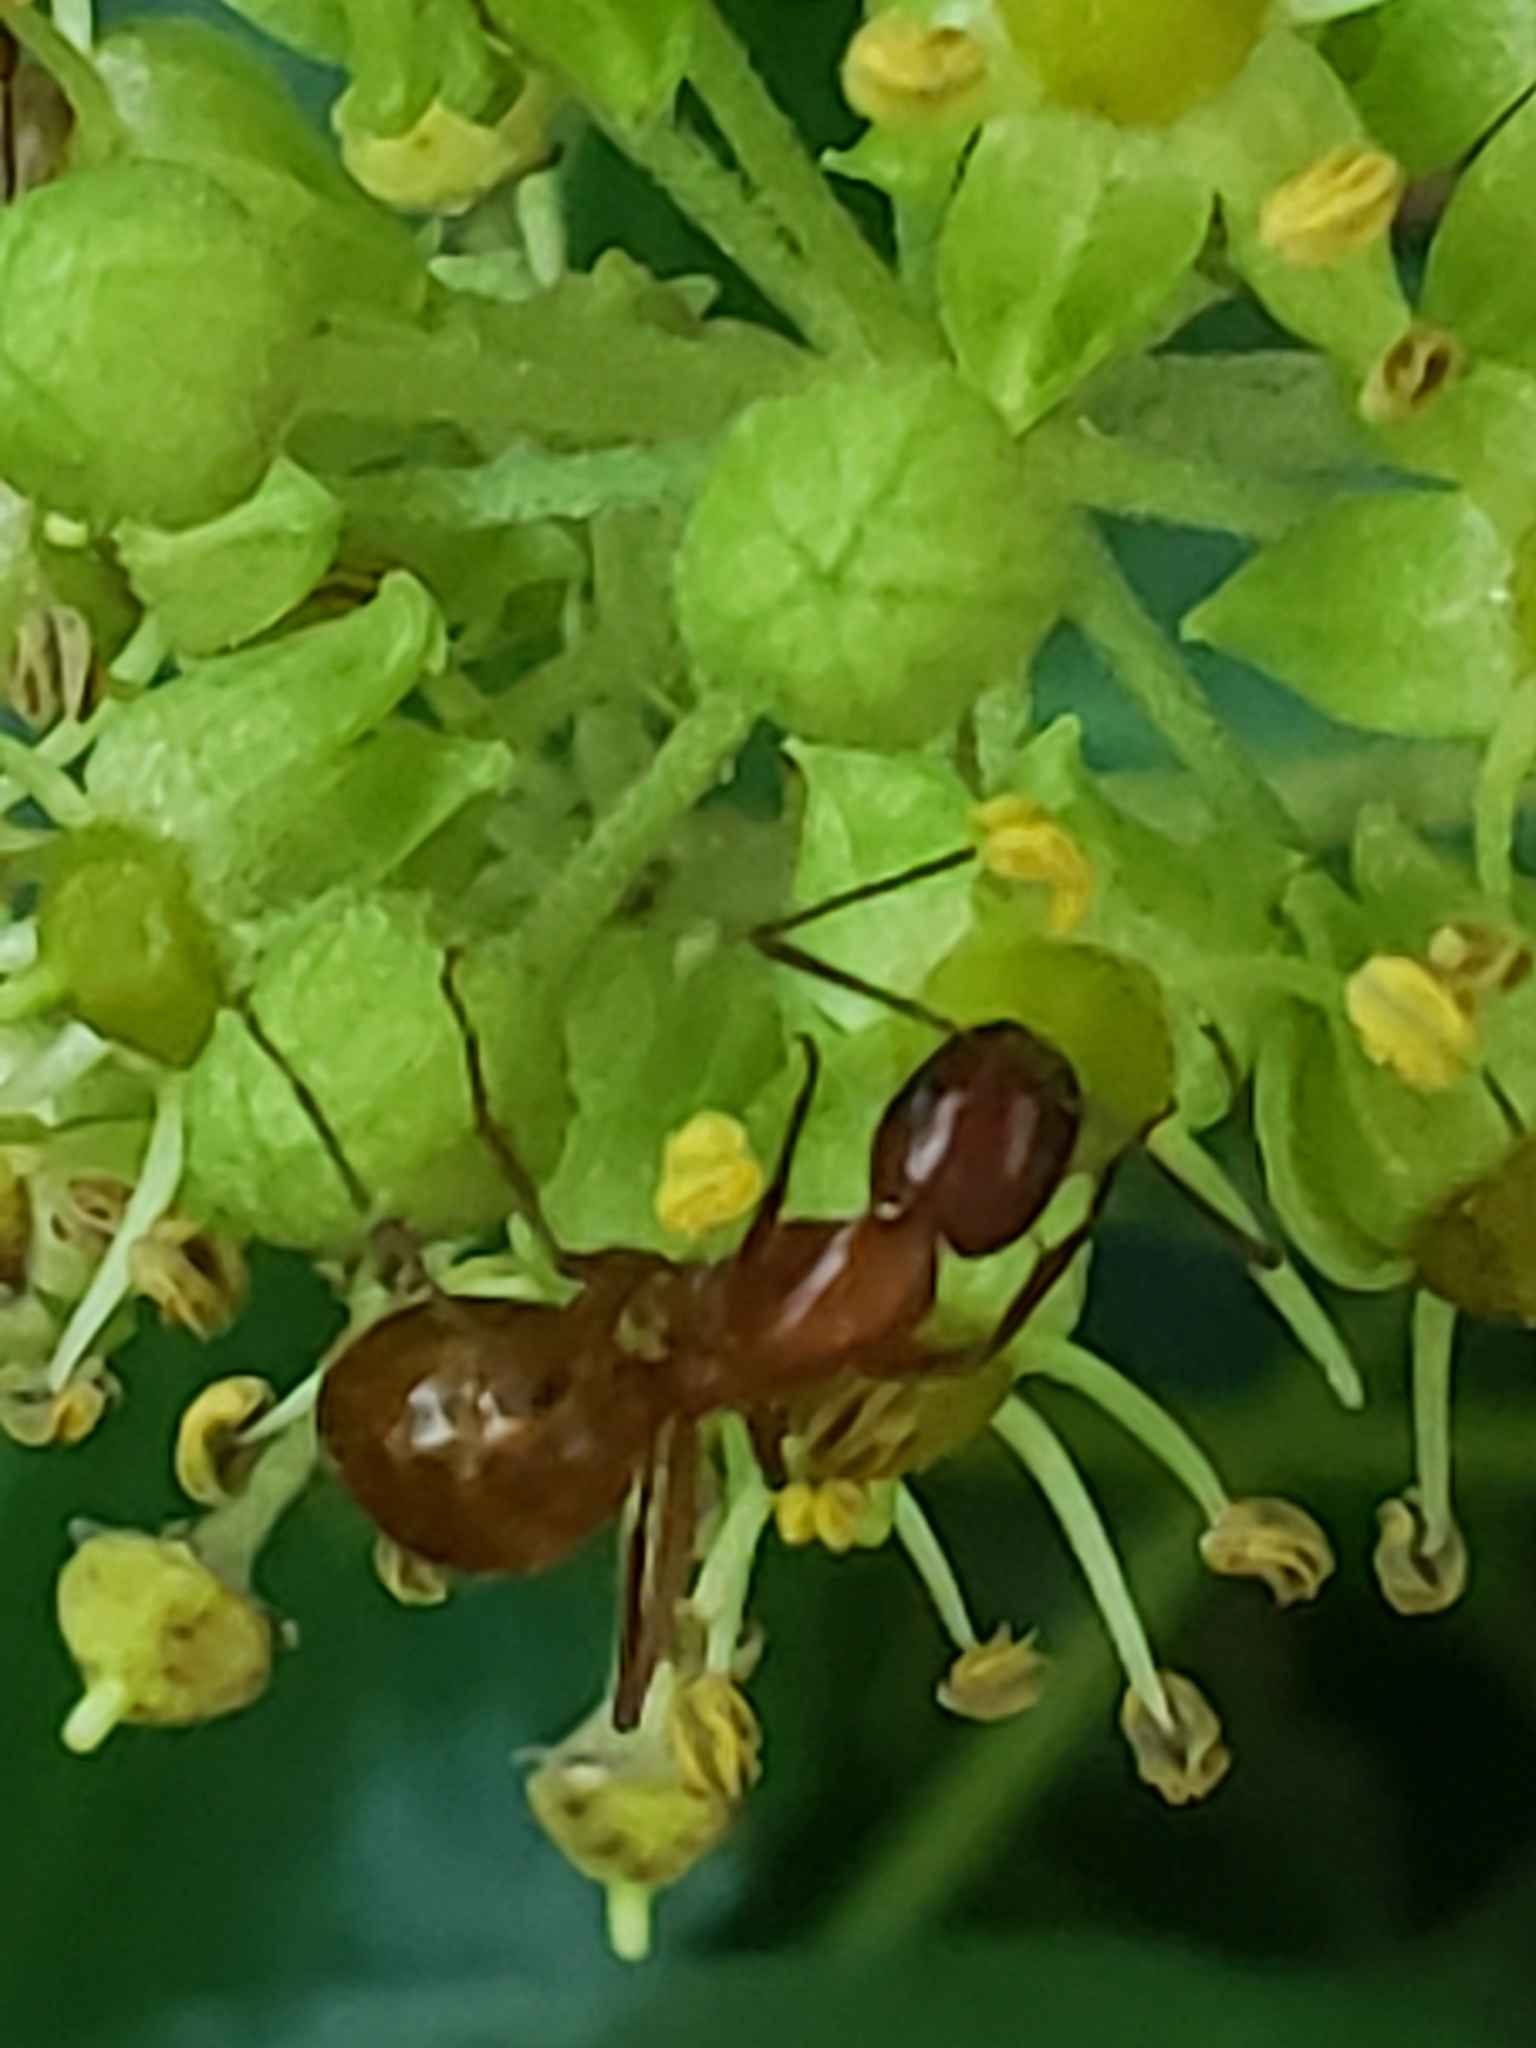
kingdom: Animalia
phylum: Arthropoda
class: Insecta
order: Hymenoptera
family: Formicidae
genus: Camponotus
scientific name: Camponotus castaneus
